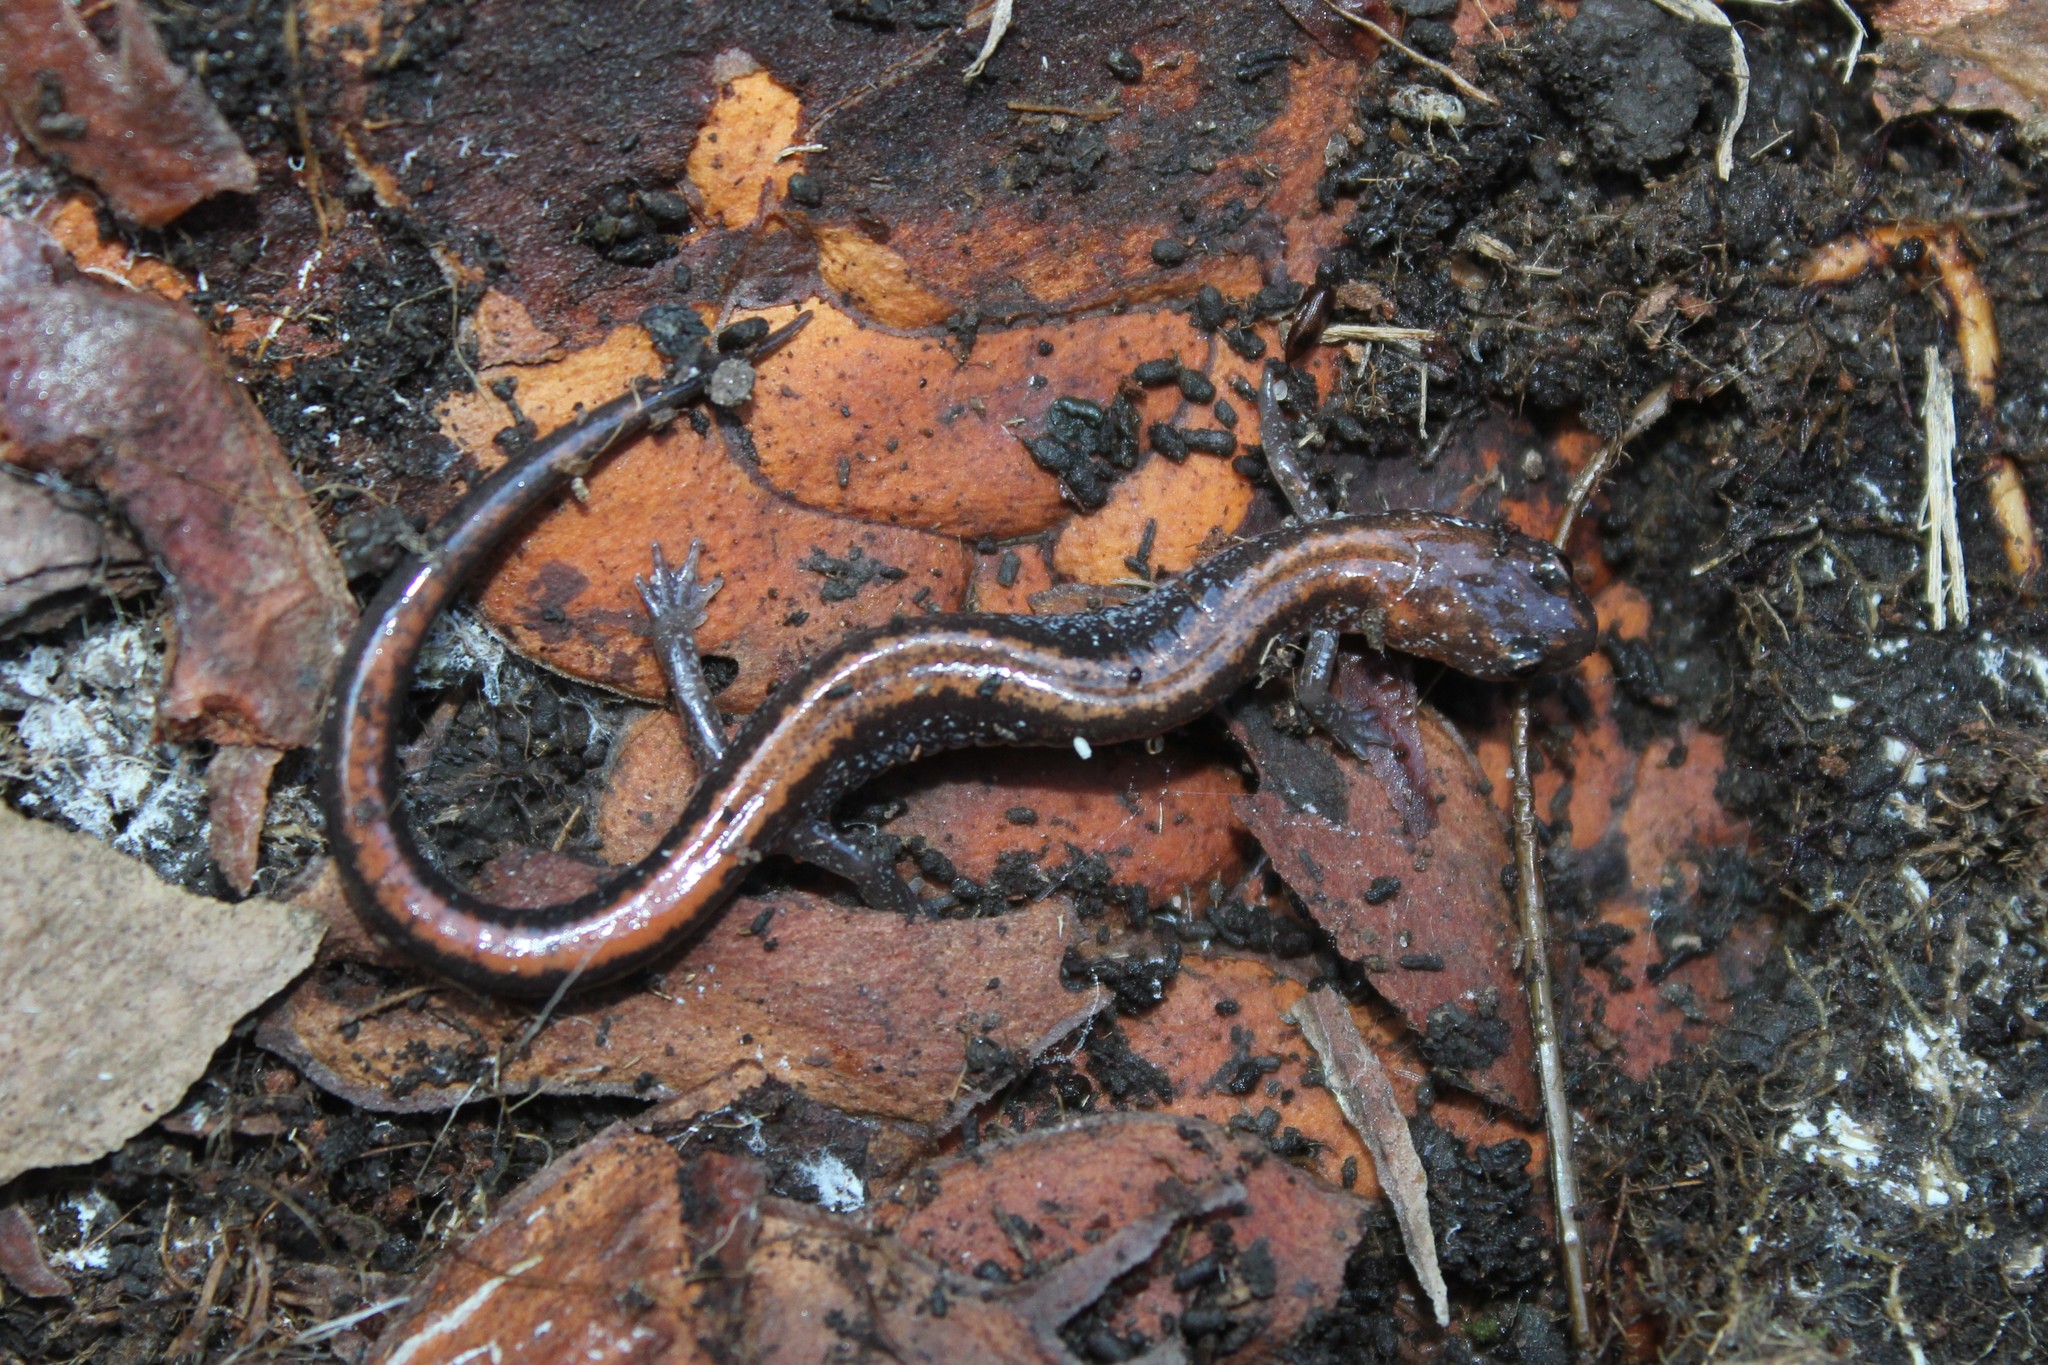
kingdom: Animalia
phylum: Chordata
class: Amphibia
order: Caudata
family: Plethodontidae
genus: Plethodon
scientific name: Plethodon cinereus
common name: Redback salamander
